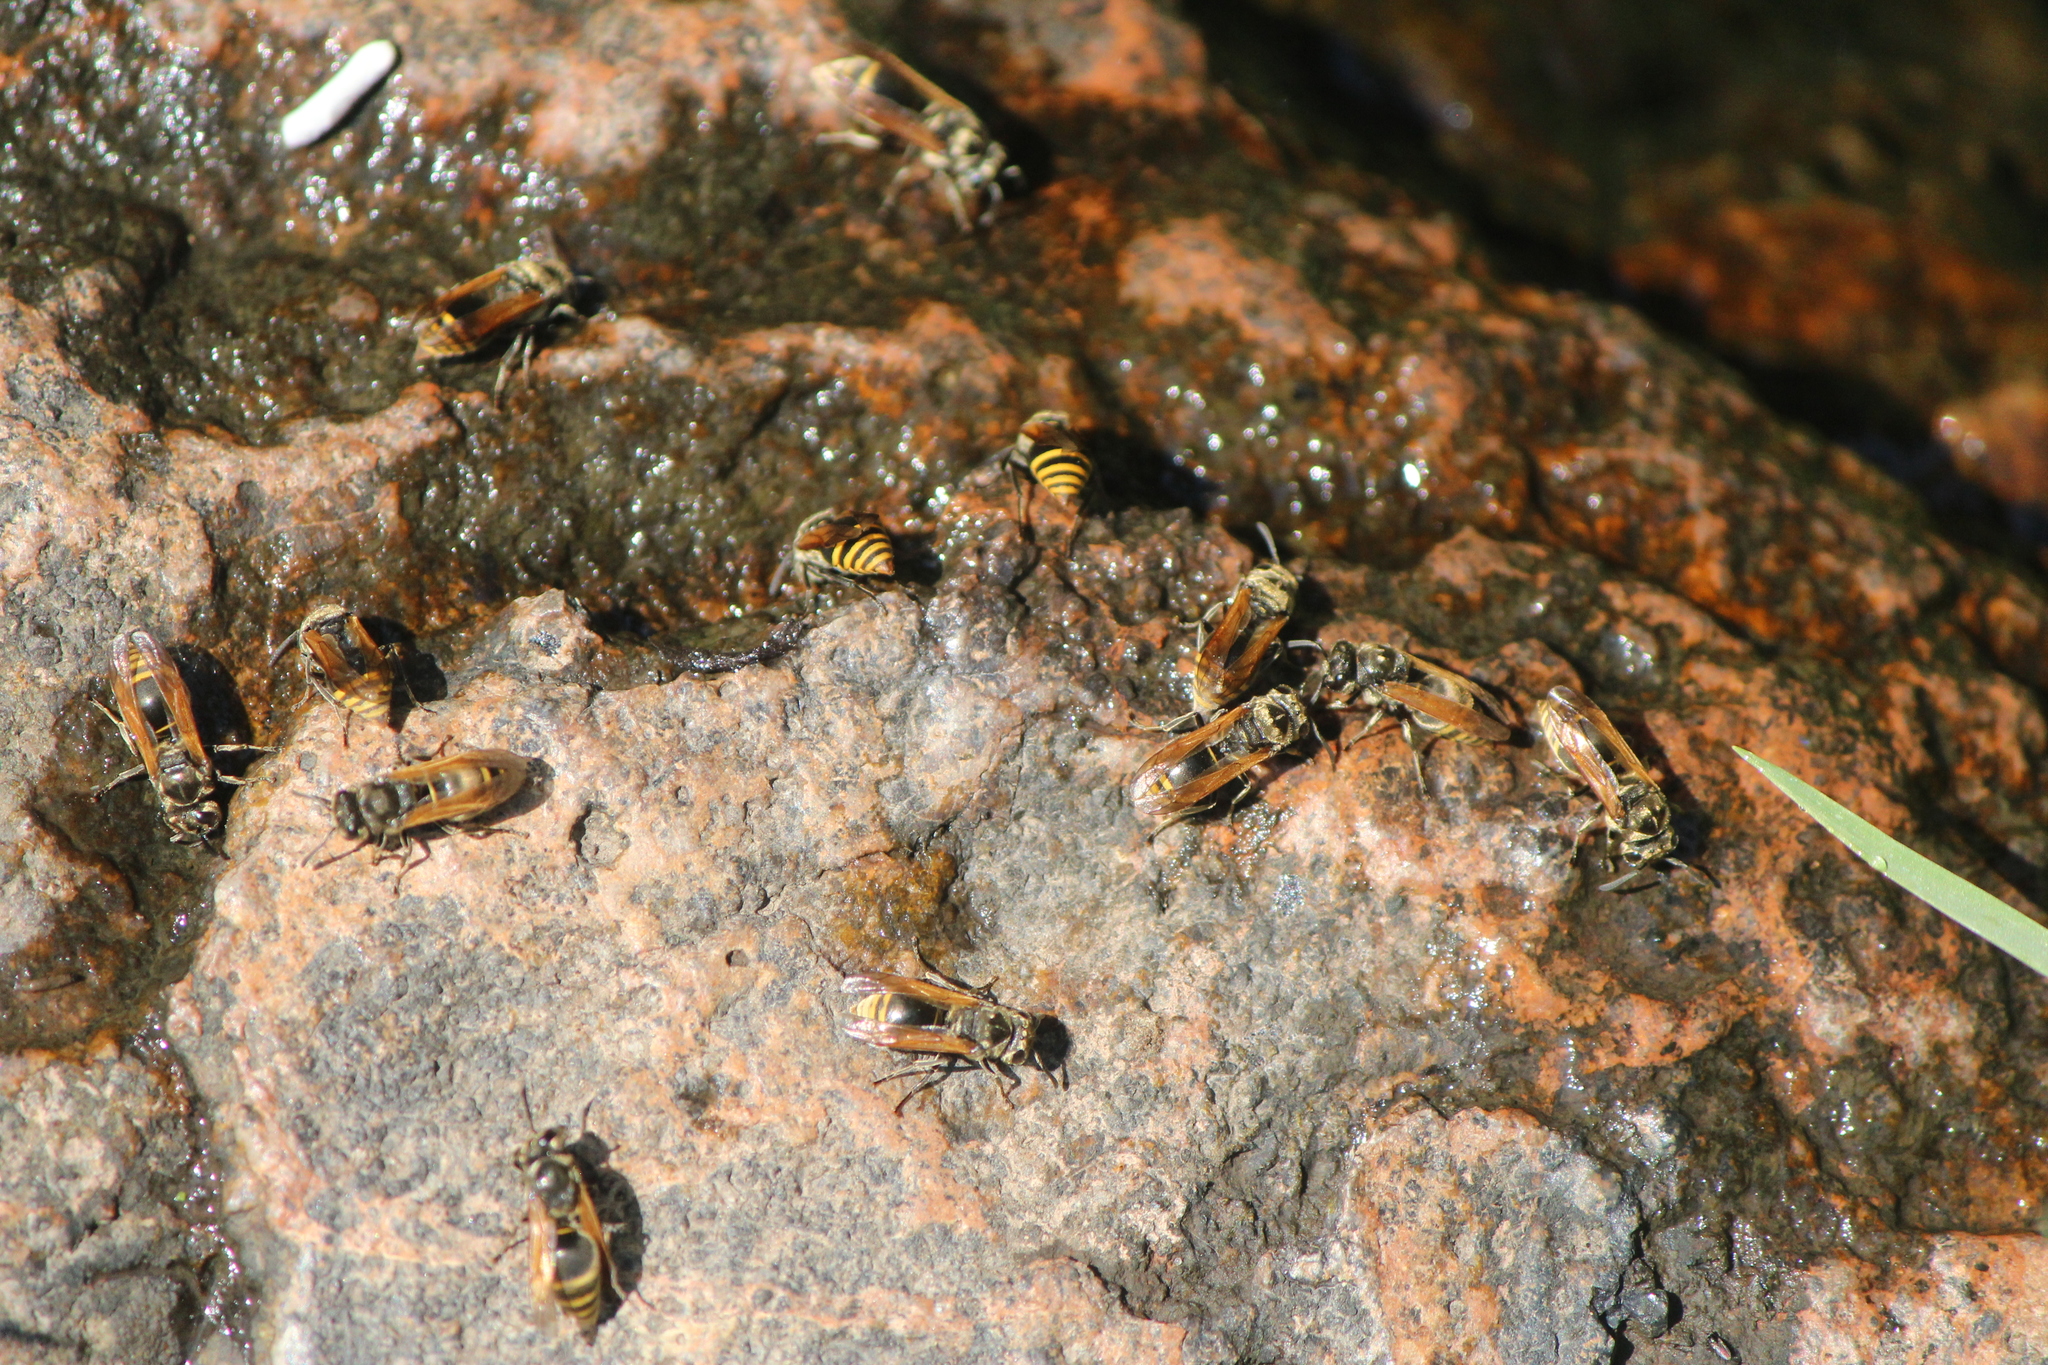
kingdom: Animalia
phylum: Arthropoda
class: Insecta
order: Hymenoptera
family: Vespidae
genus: Brachygastra
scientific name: Brachygastra mellifica
